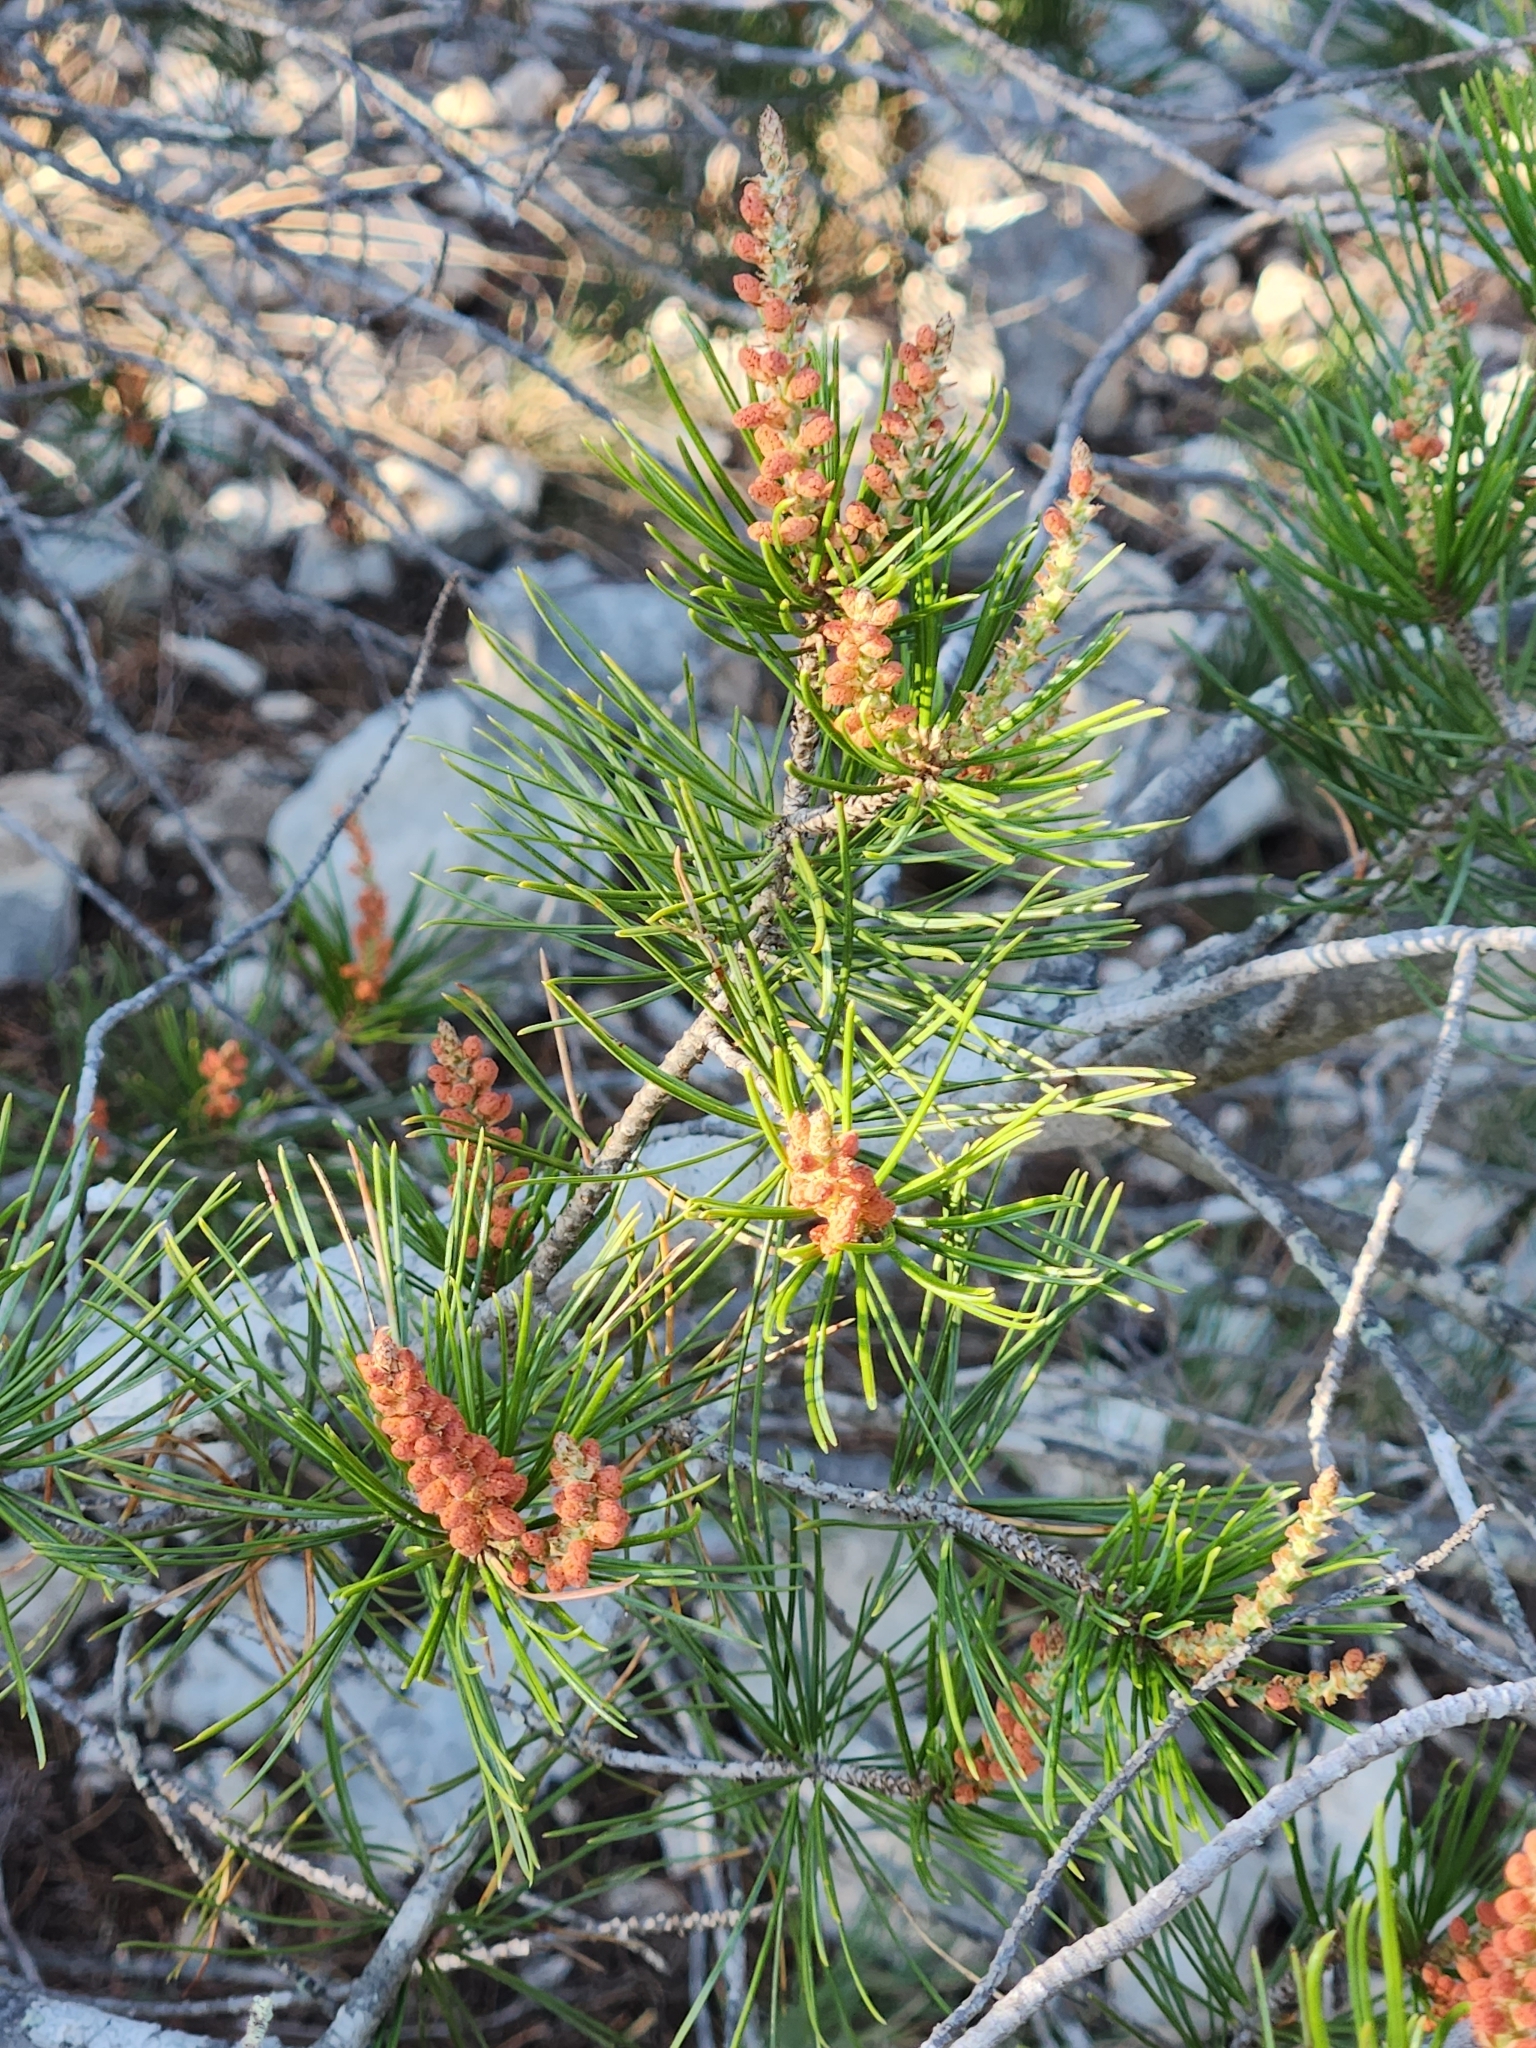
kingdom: Plantae
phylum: Tracheophyta
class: Pinopsida
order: Pinales
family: Pinaceae
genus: Pinus
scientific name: Pinus remota
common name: Nut pine
